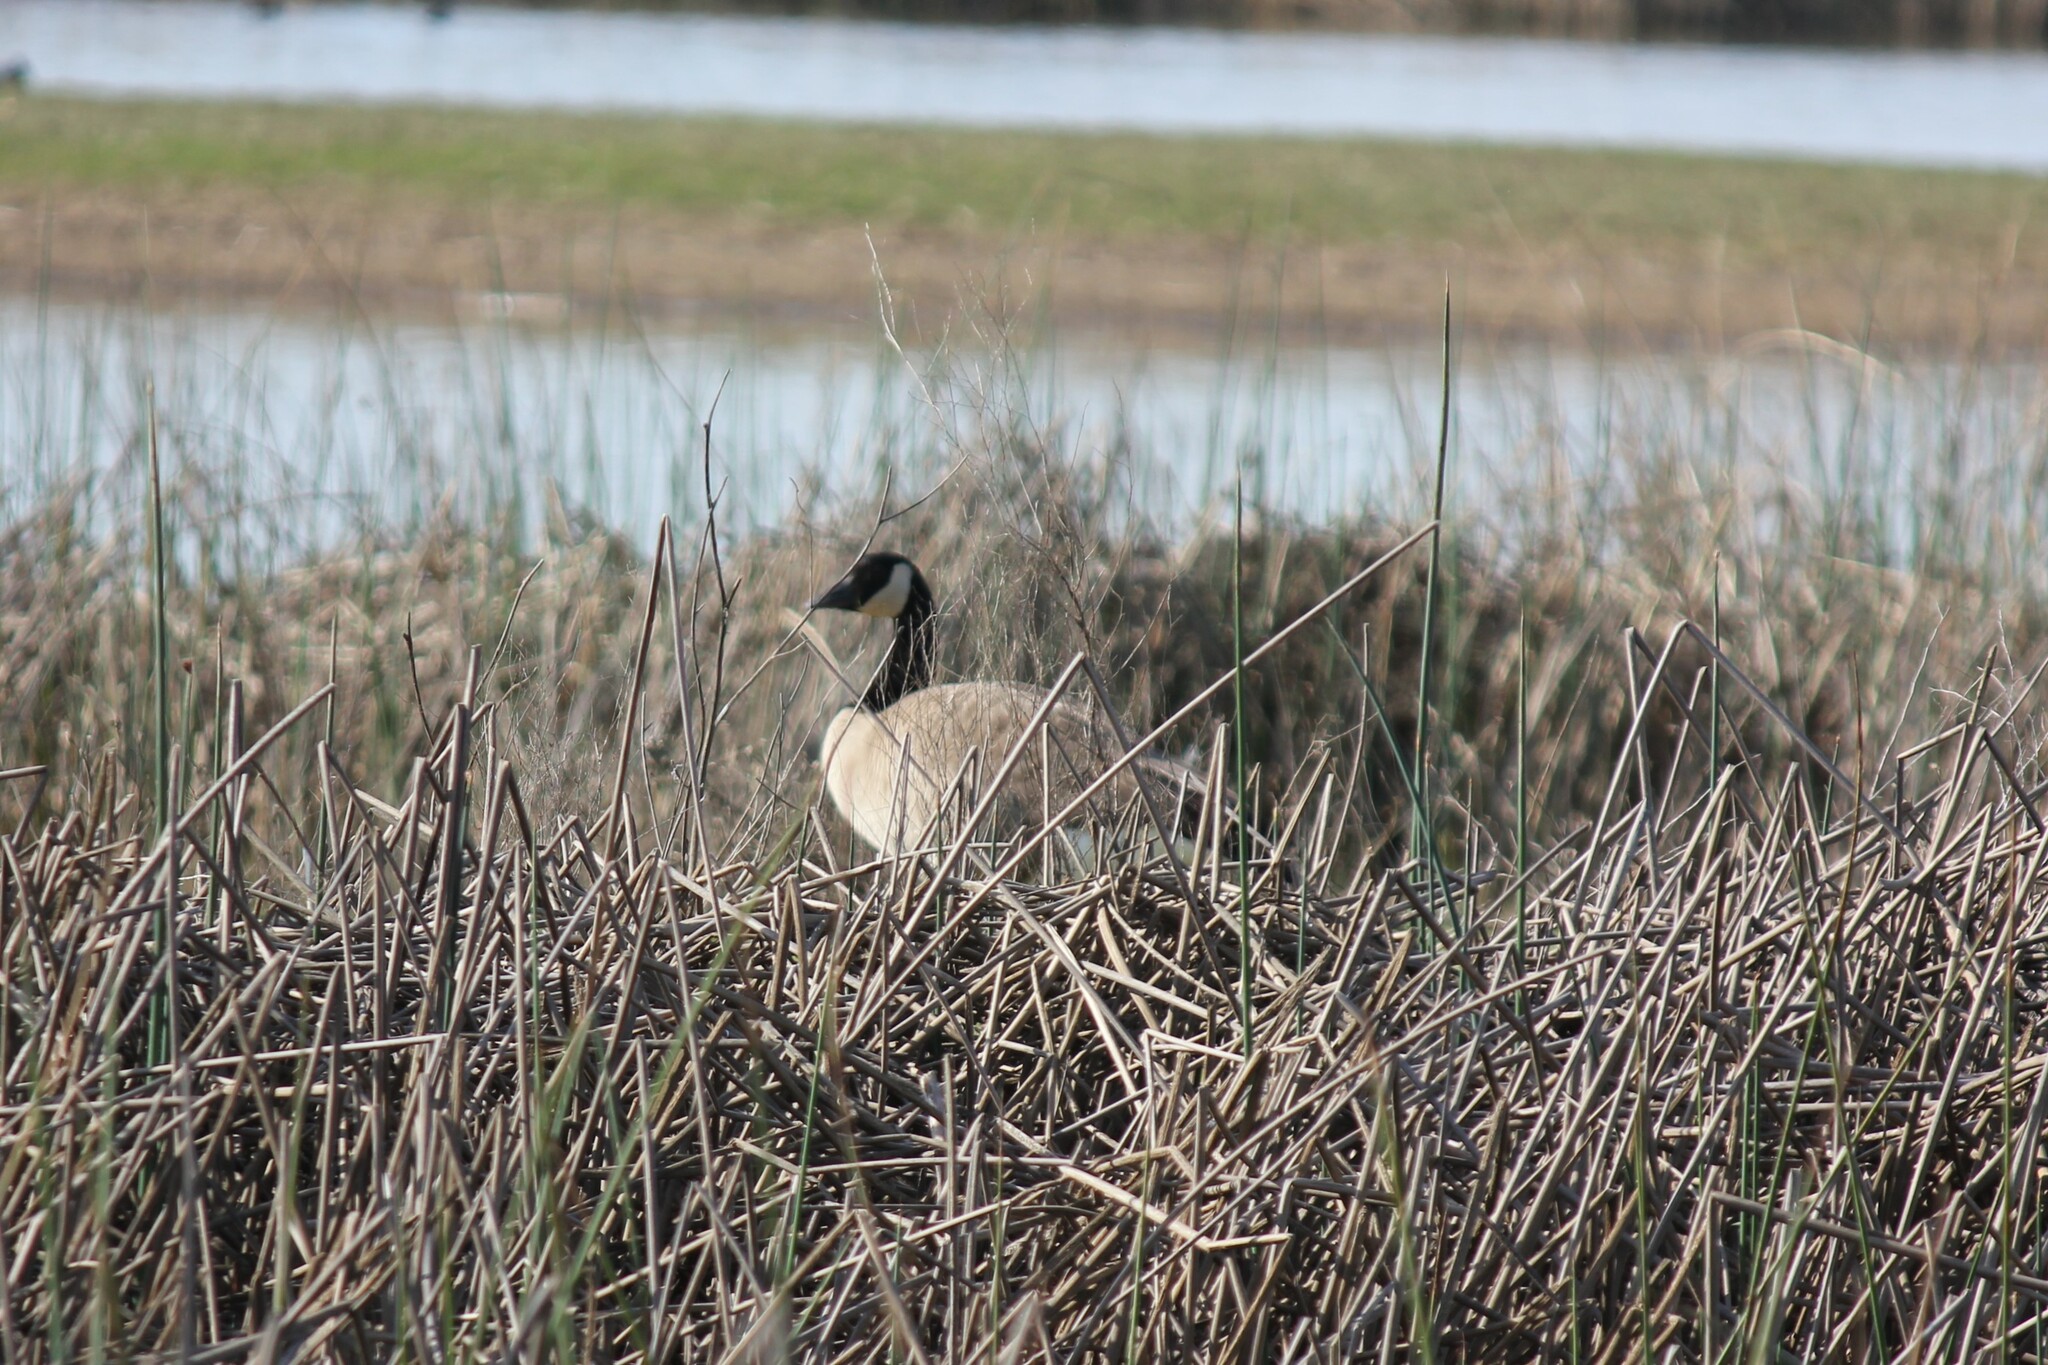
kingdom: Animalia
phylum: Chordata
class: Aves
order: Anseriformes
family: Anatidae
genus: Branta
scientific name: Branta canadensis
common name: Canada goose
